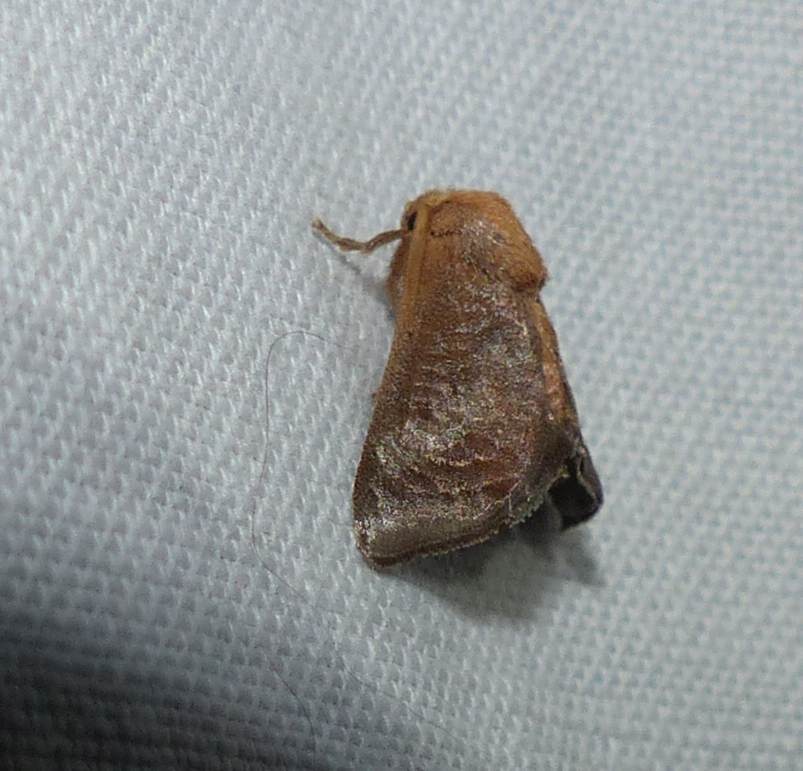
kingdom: Animalia
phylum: Arthropoda
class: Insecta
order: Lepidoptera
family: Limacodidae
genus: Isa
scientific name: Isa textula
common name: Crowned slug moth
